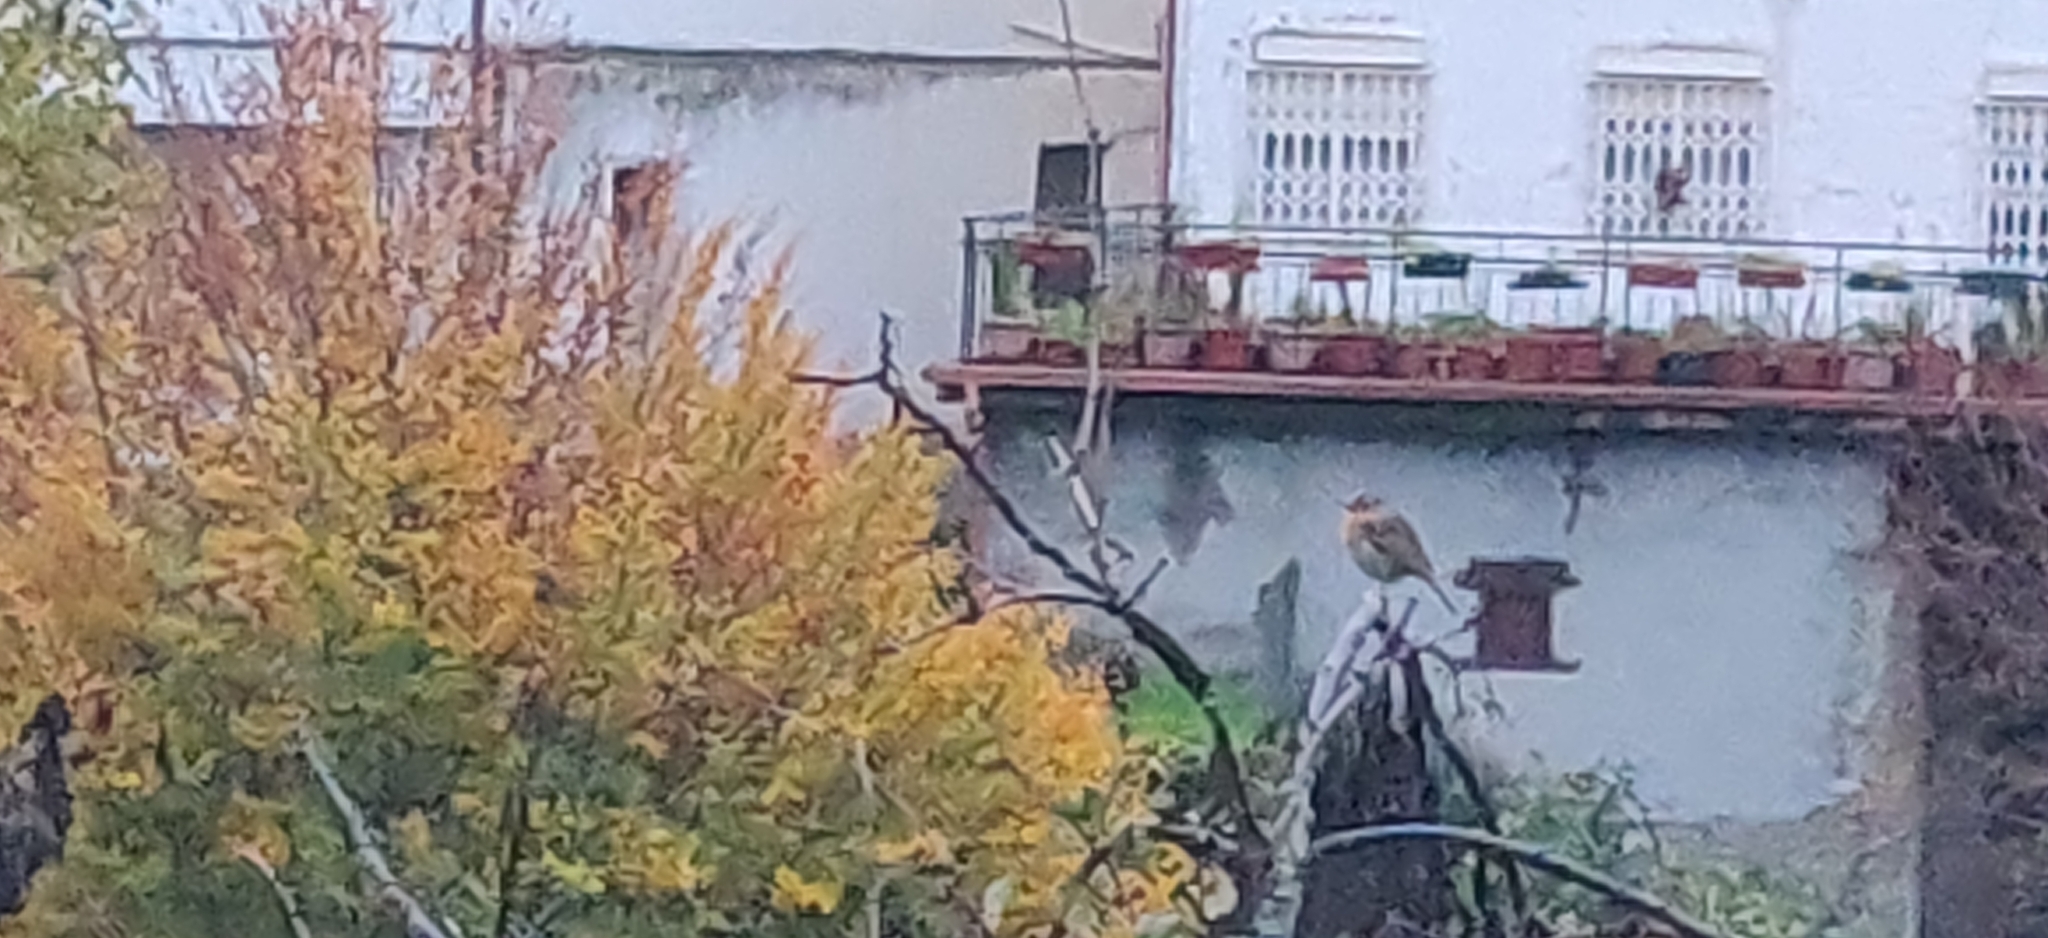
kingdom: Animalia
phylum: Chordata
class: Aves
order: Passeriformes
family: Muscicapidae
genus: Erithacus
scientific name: Erithacus rubecula
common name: European robin
